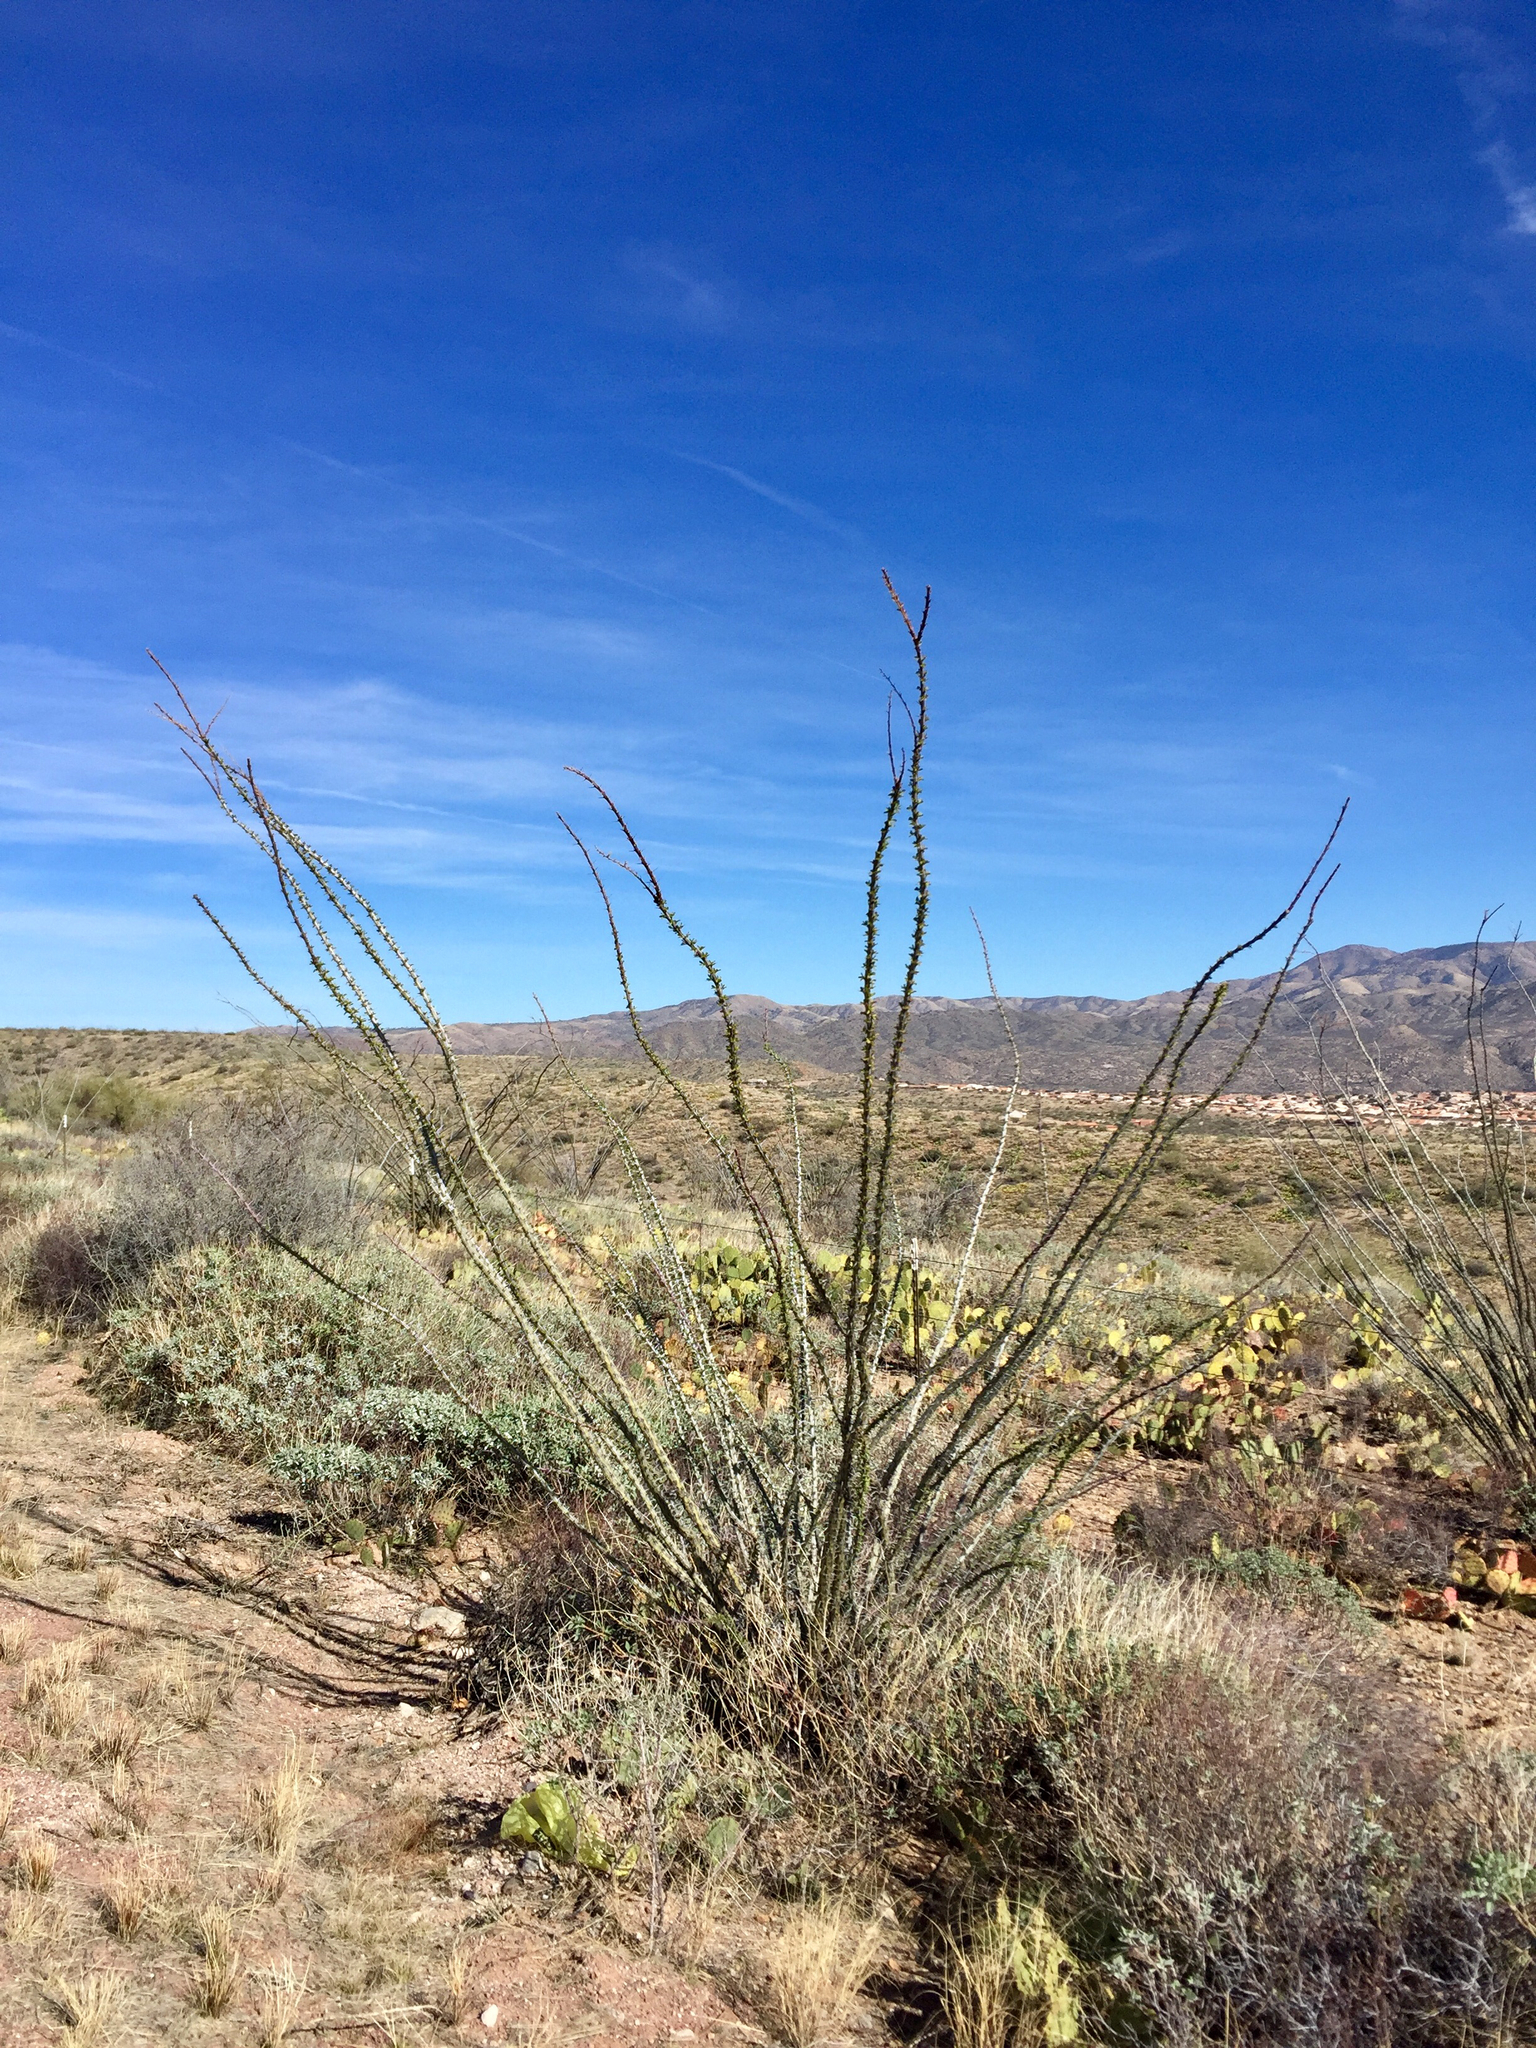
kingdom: Plantae
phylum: Tracheophyta
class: Magnoliopsida
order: Ericales
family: Fouquieriaceae
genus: Fouquieria
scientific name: Fouquieria splendens
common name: Vine-cactus
